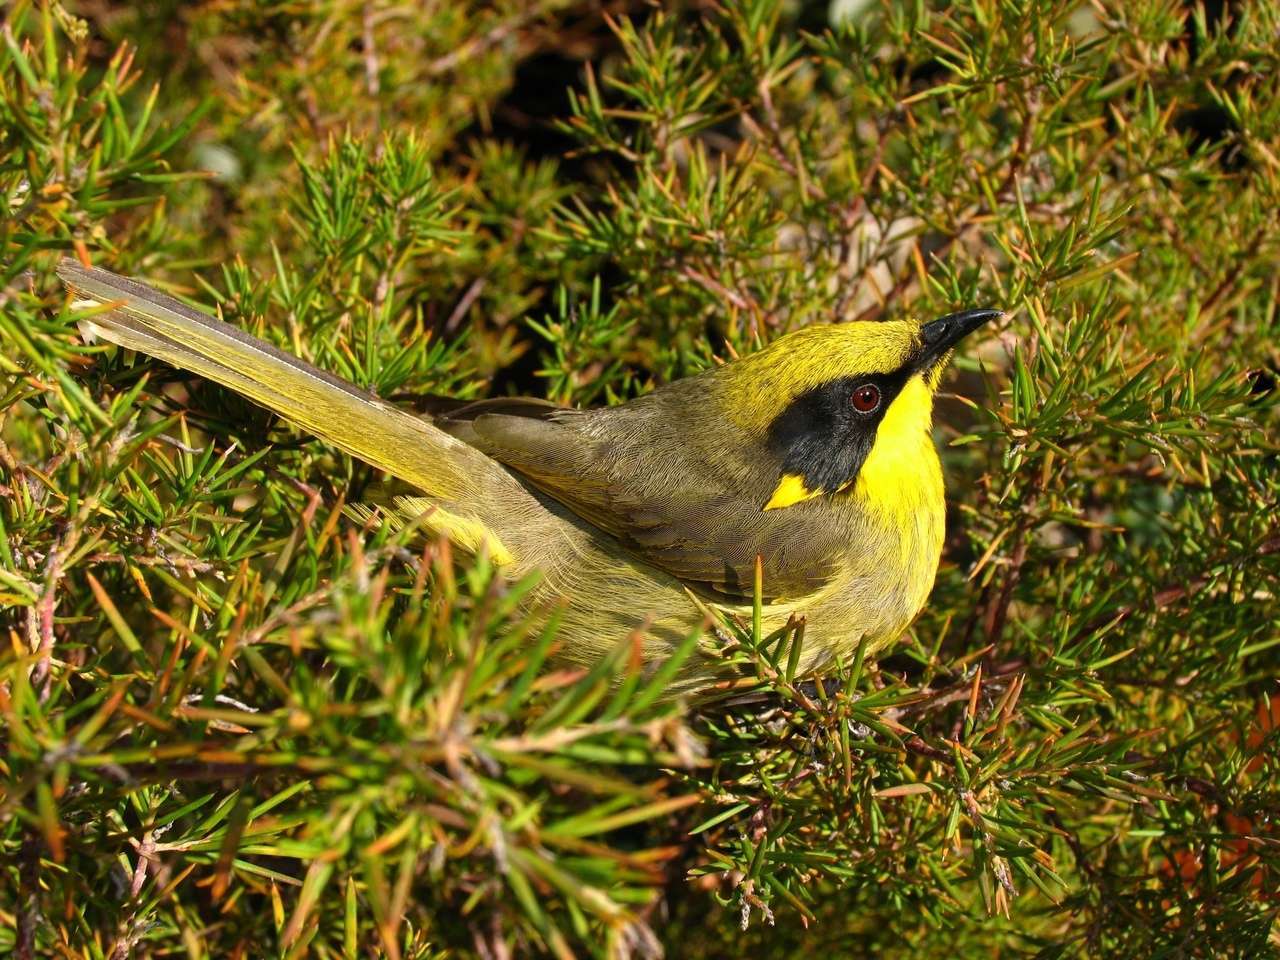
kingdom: Animalia
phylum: Chordata
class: Aves
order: Passeriformes
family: Meliphagidae
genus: Lichenostomus
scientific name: Lichenostomus melanops
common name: Yellow-tufted honeyeater
